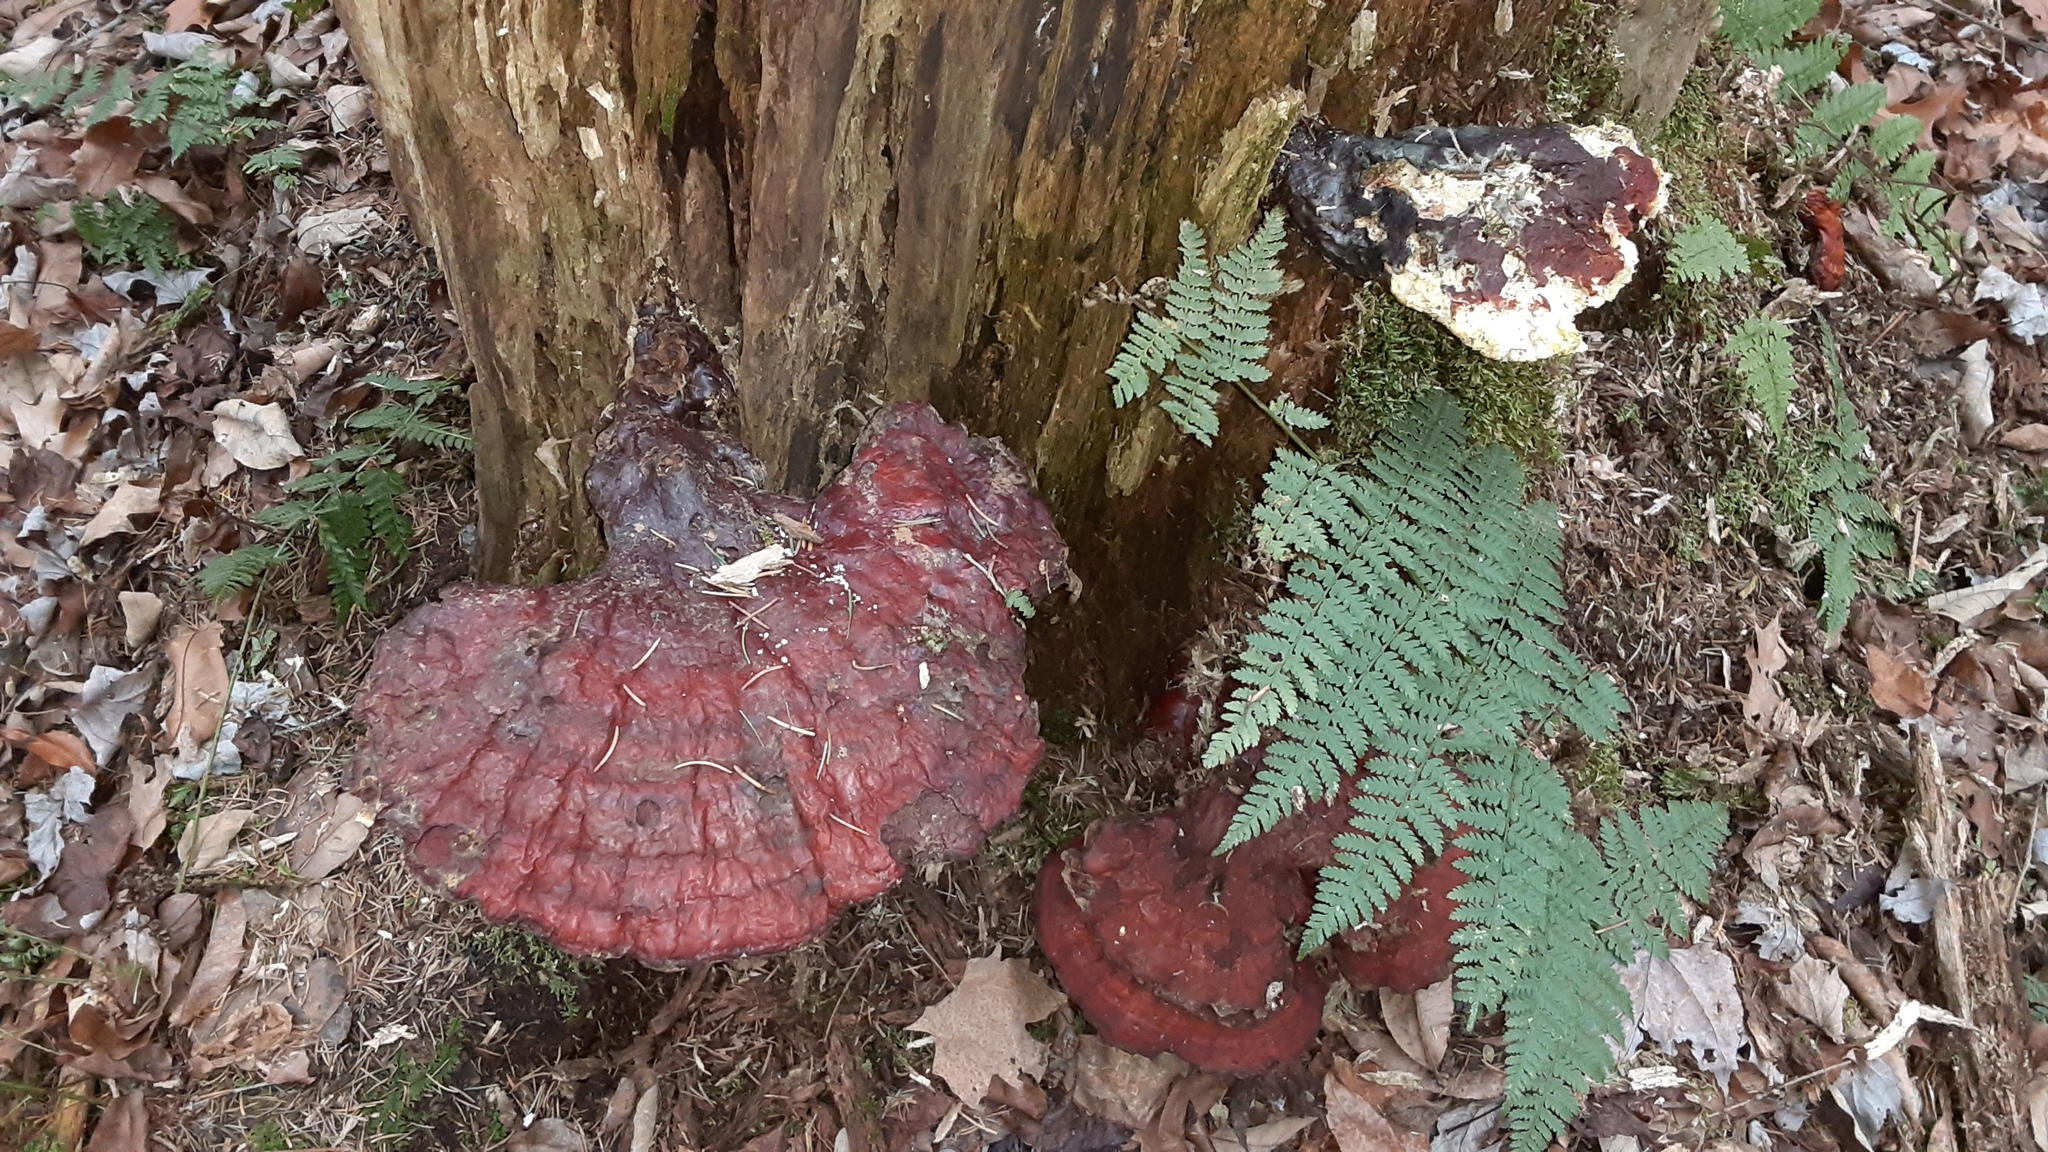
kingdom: Fungi
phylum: Basidiomycota
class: Agaricomycetes
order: Polyporales
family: Polyporaceae
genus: Ganoderma
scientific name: Ganoderma tsugae
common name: Hemlock varnish shelf
